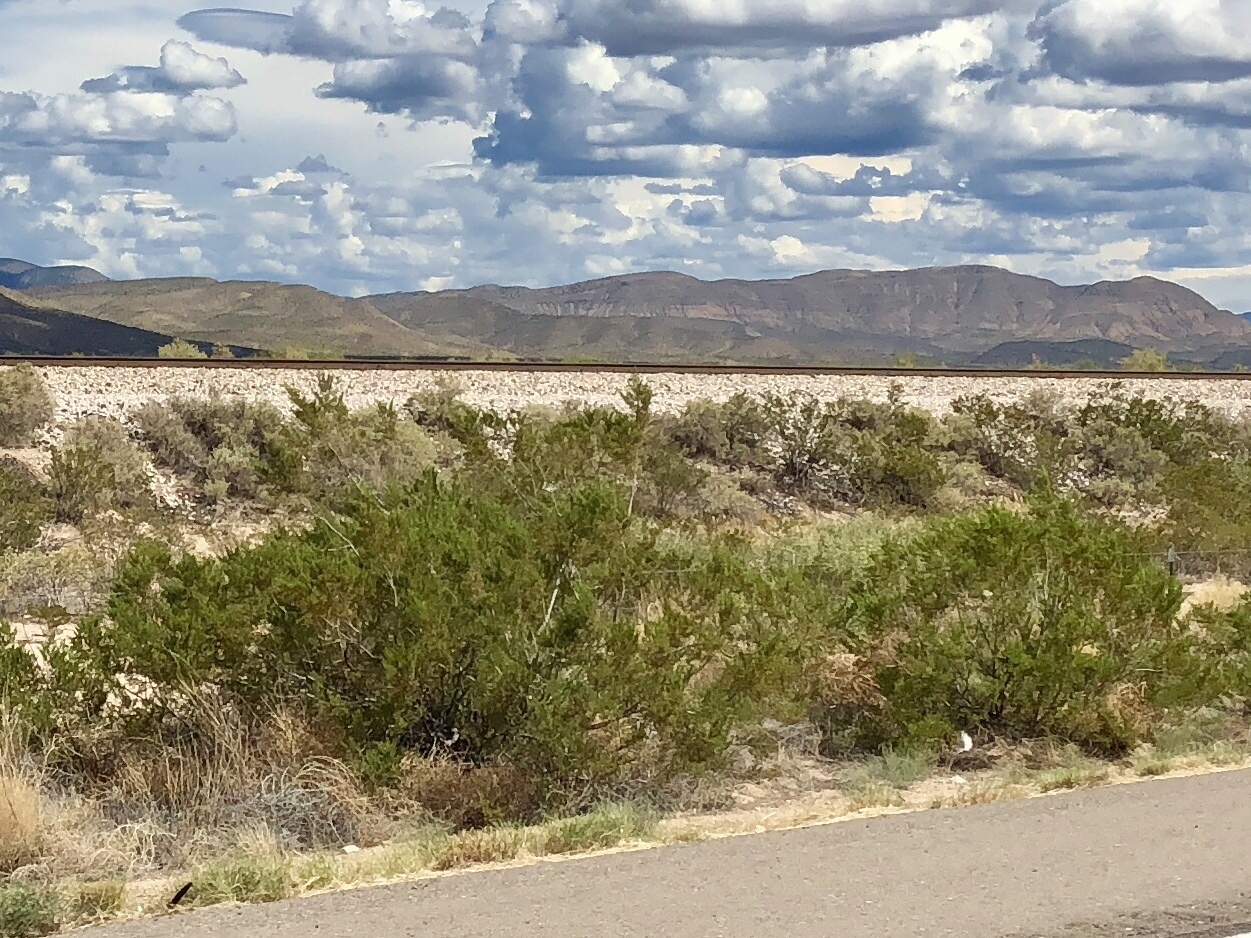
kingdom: Plantae
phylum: Tracheophyta
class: Magnoliopsida
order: Zygophyllales
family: Zygophyllaceae
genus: Larrea
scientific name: Larrea tridentata
